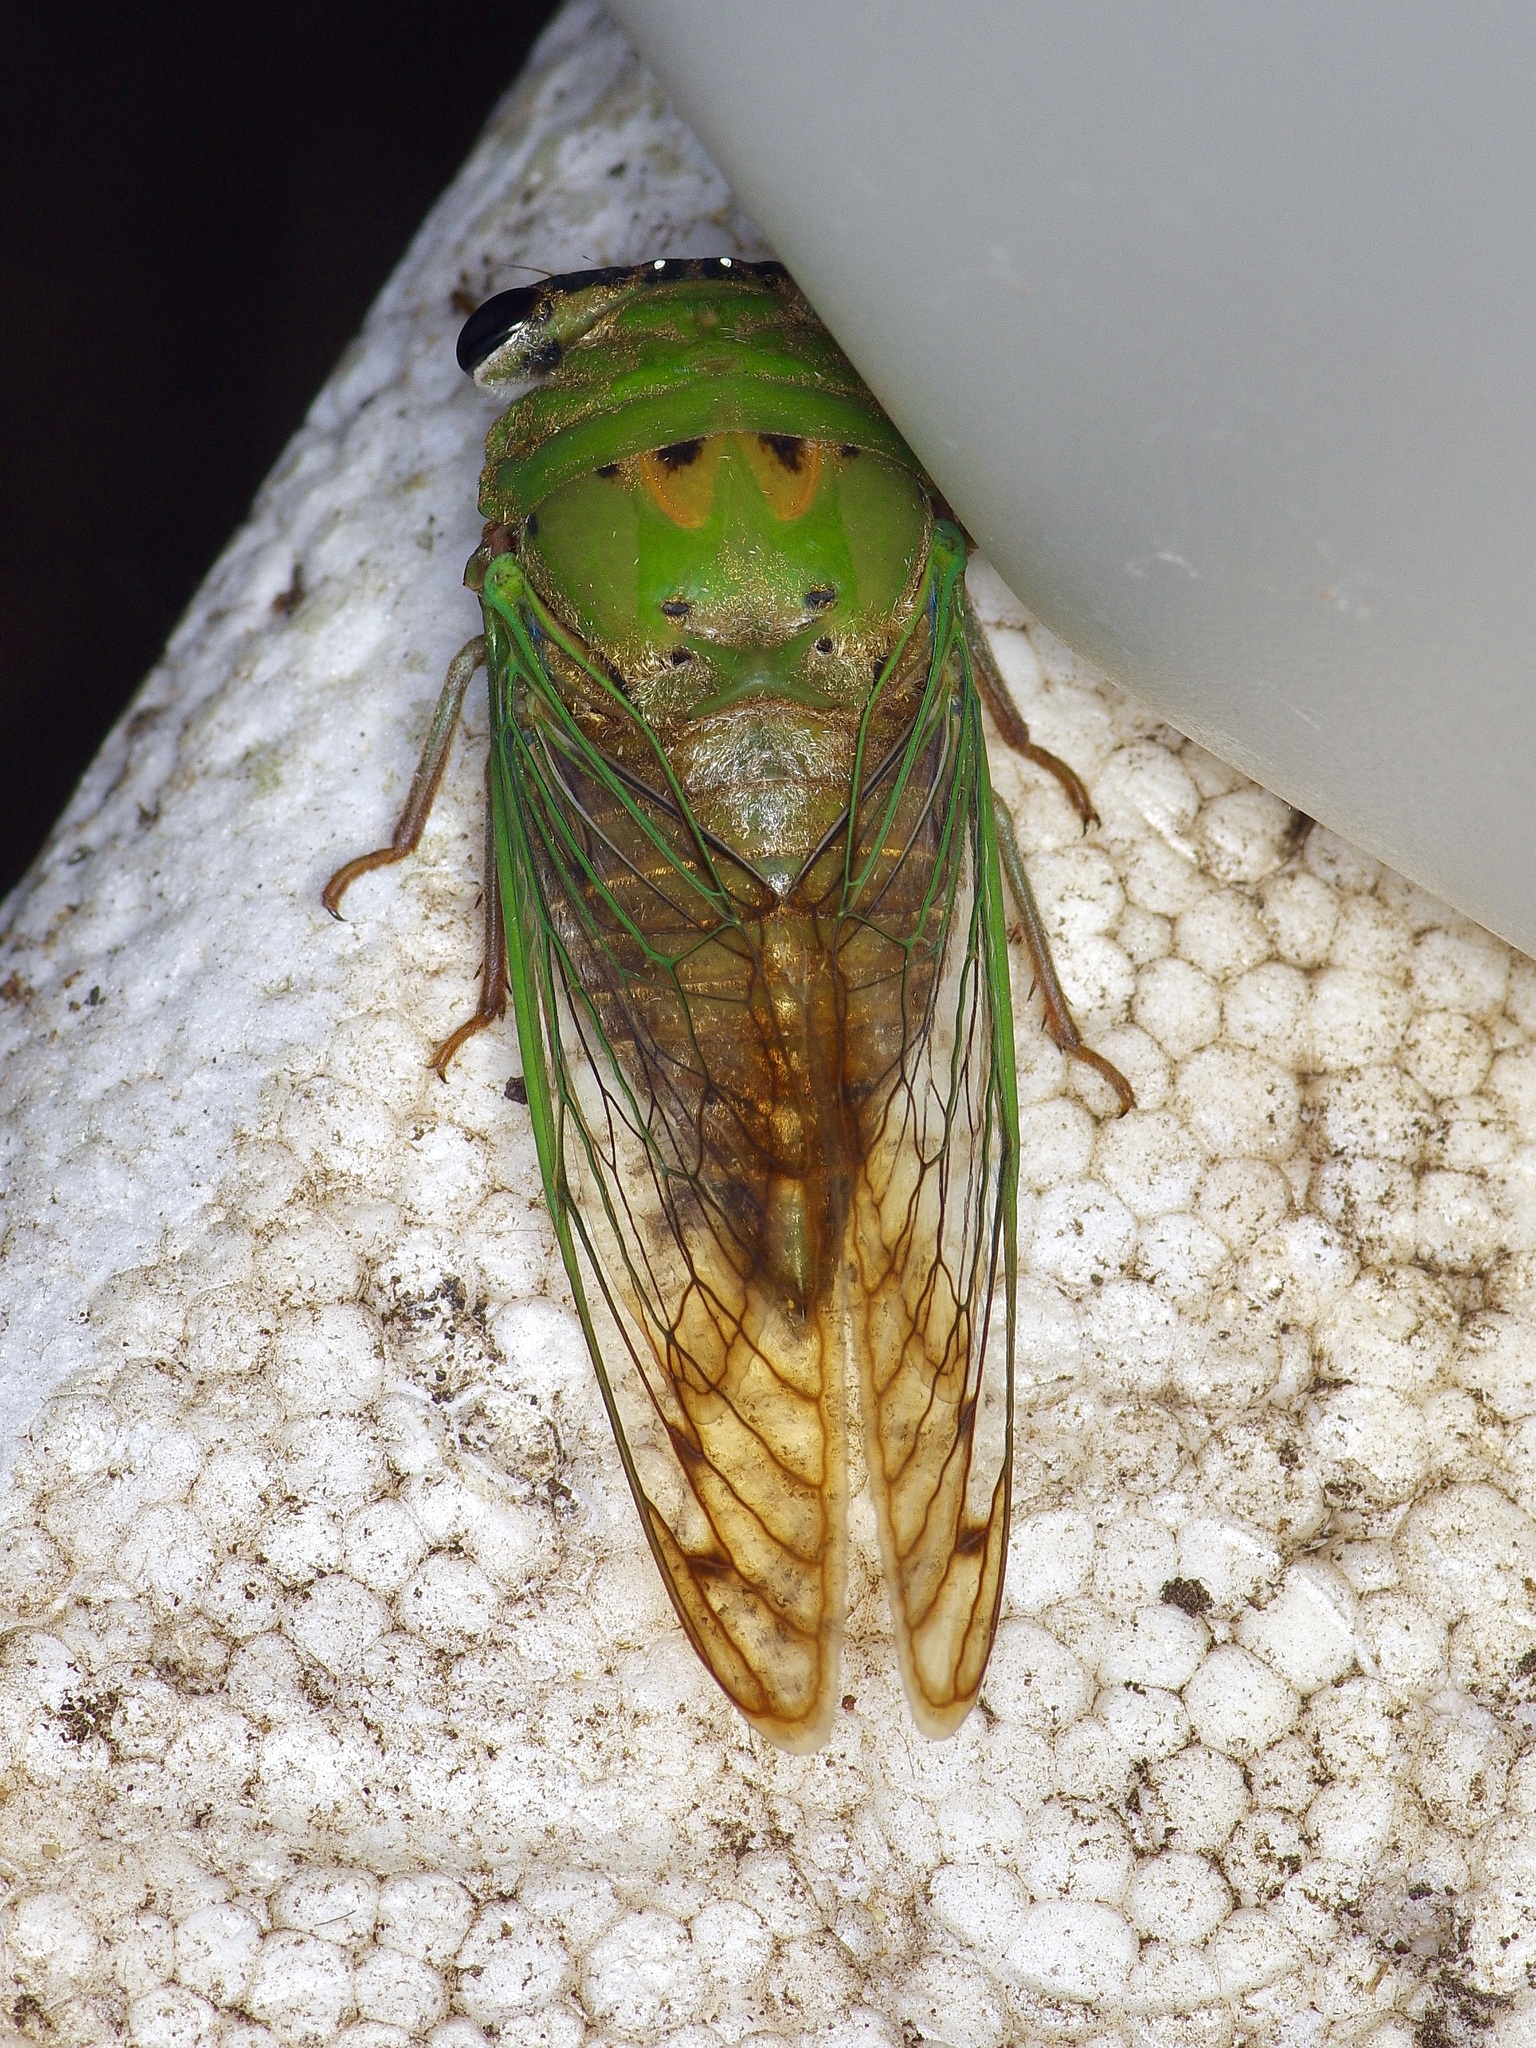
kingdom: Animalia
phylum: Arthropoda
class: Insecta
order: Hemiptera
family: Cicadidae
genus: Neotibicen
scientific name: Neotibicen superbus
